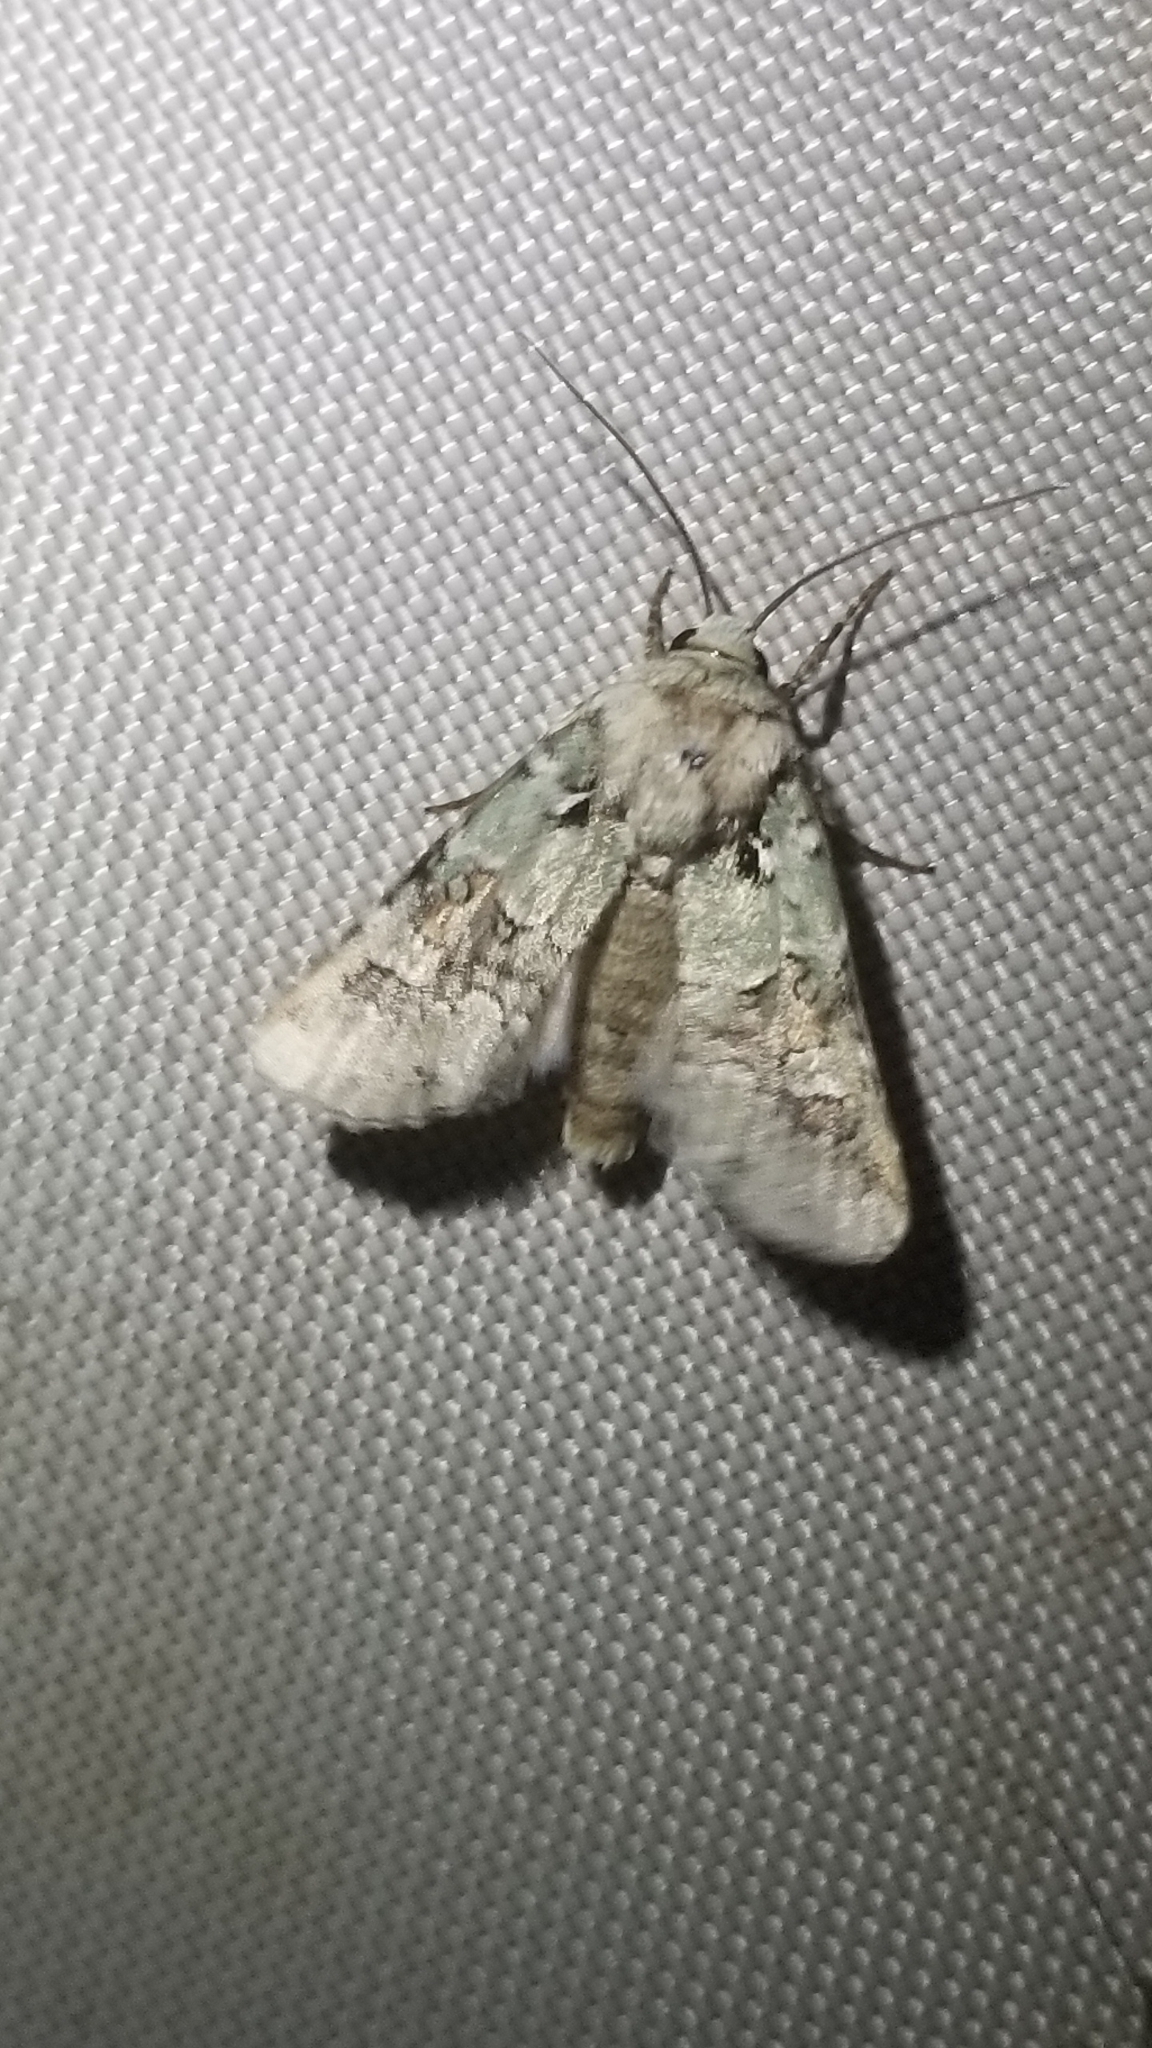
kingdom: Animalia
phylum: Arthropoda
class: Insecta
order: Lepidoptera
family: Noctuidae
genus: Lacinipolia
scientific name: Lacinipolia laudabilis
